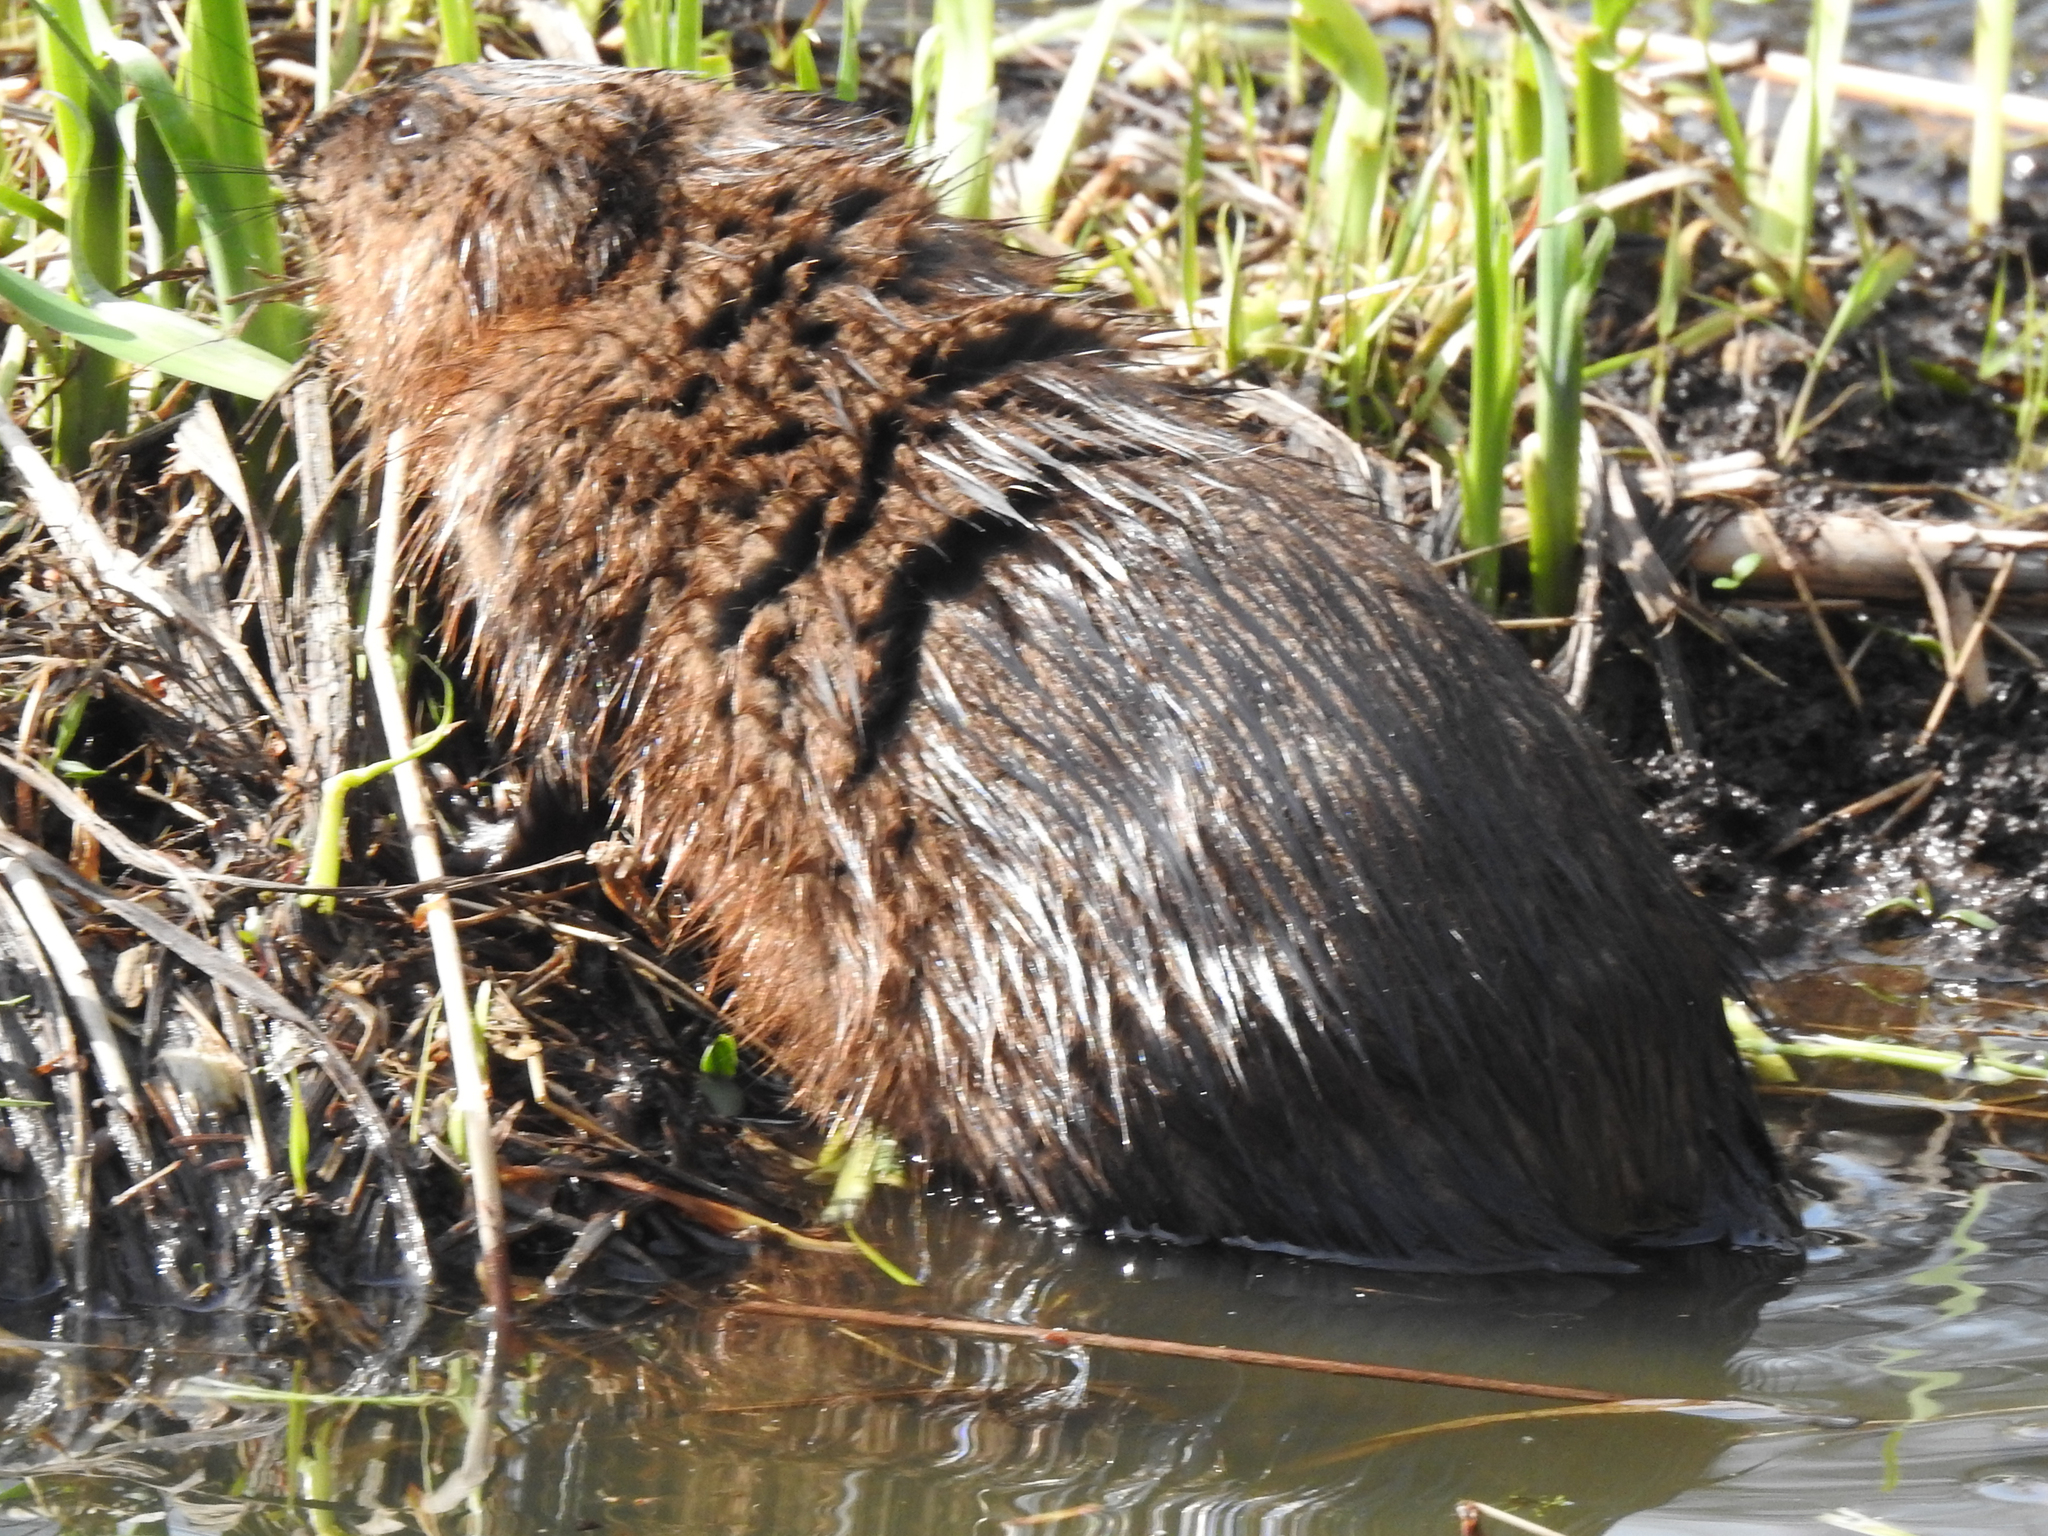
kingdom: Animalia
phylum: Chordata
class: Mammalia
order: Rodentia
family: Cricetidae
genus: Ondatra
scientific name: Ondatra zibethicus
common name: Muskrat
